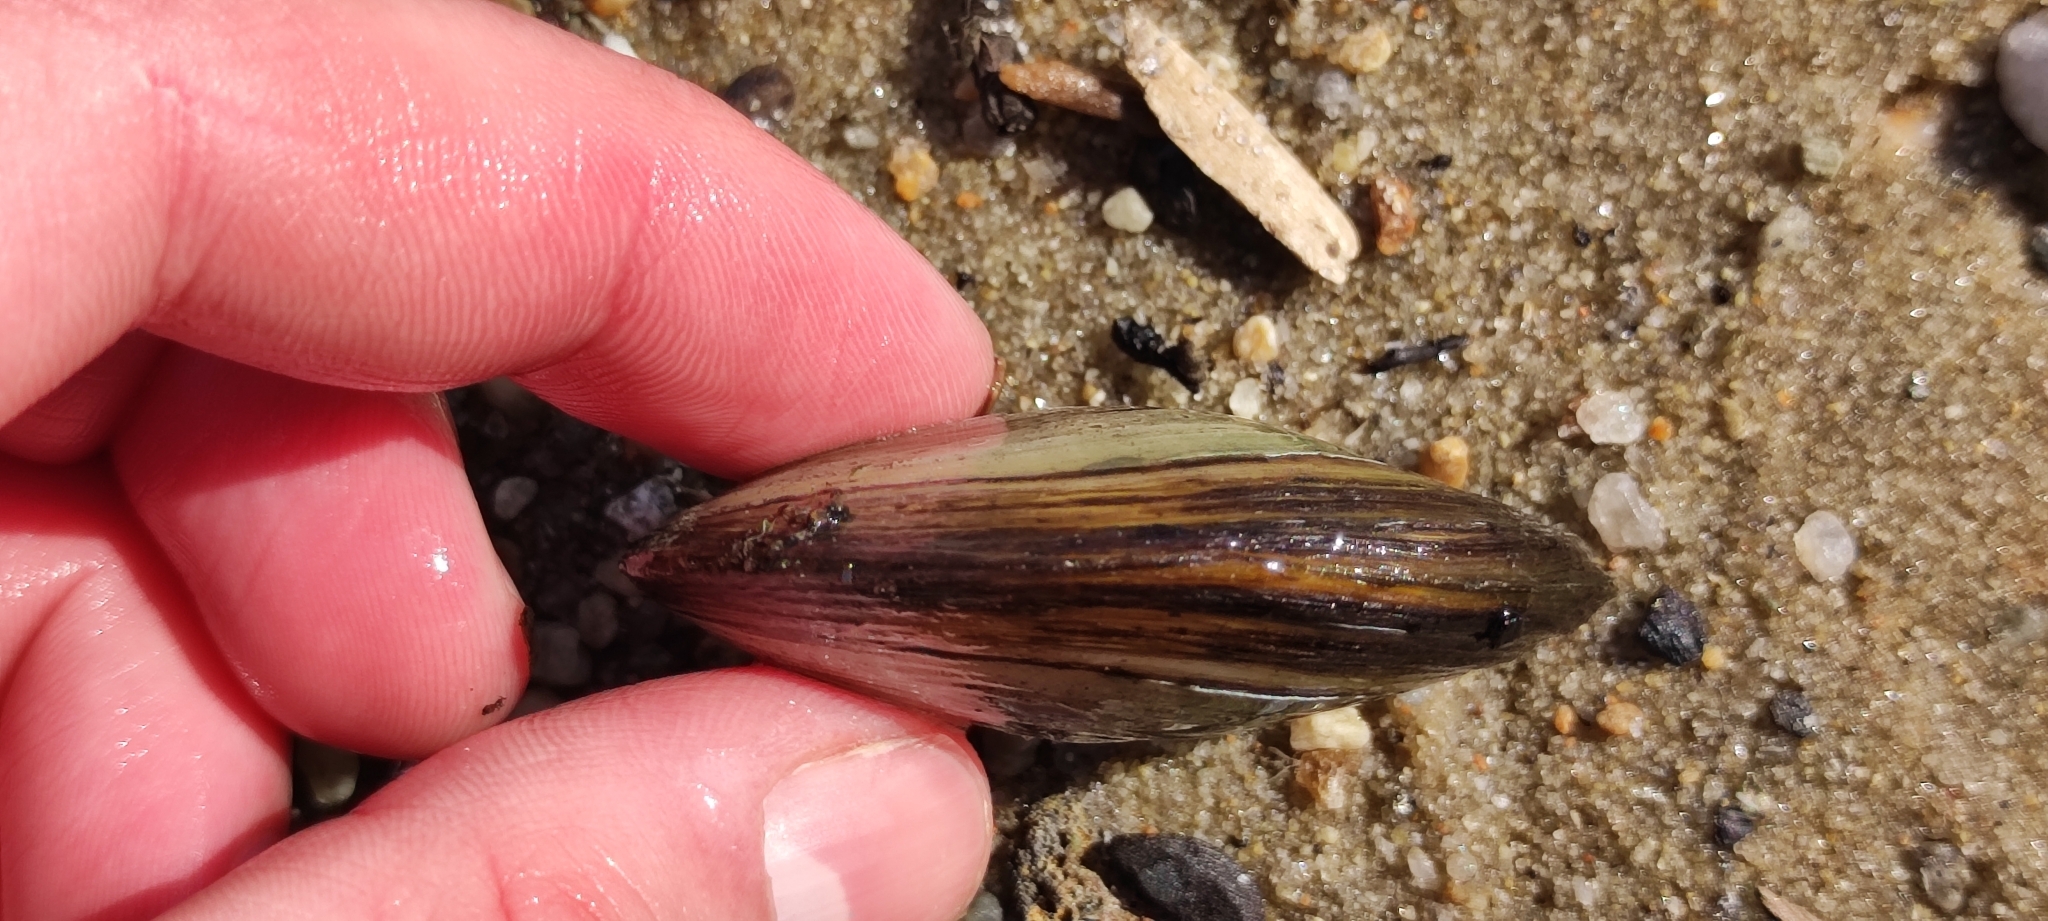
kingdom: Animalia
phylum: Mollusca
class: Bivalvia
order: Unionida
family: Unionidae
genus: Anodonta
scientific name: Anodonta anatina
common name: Duck mussel
